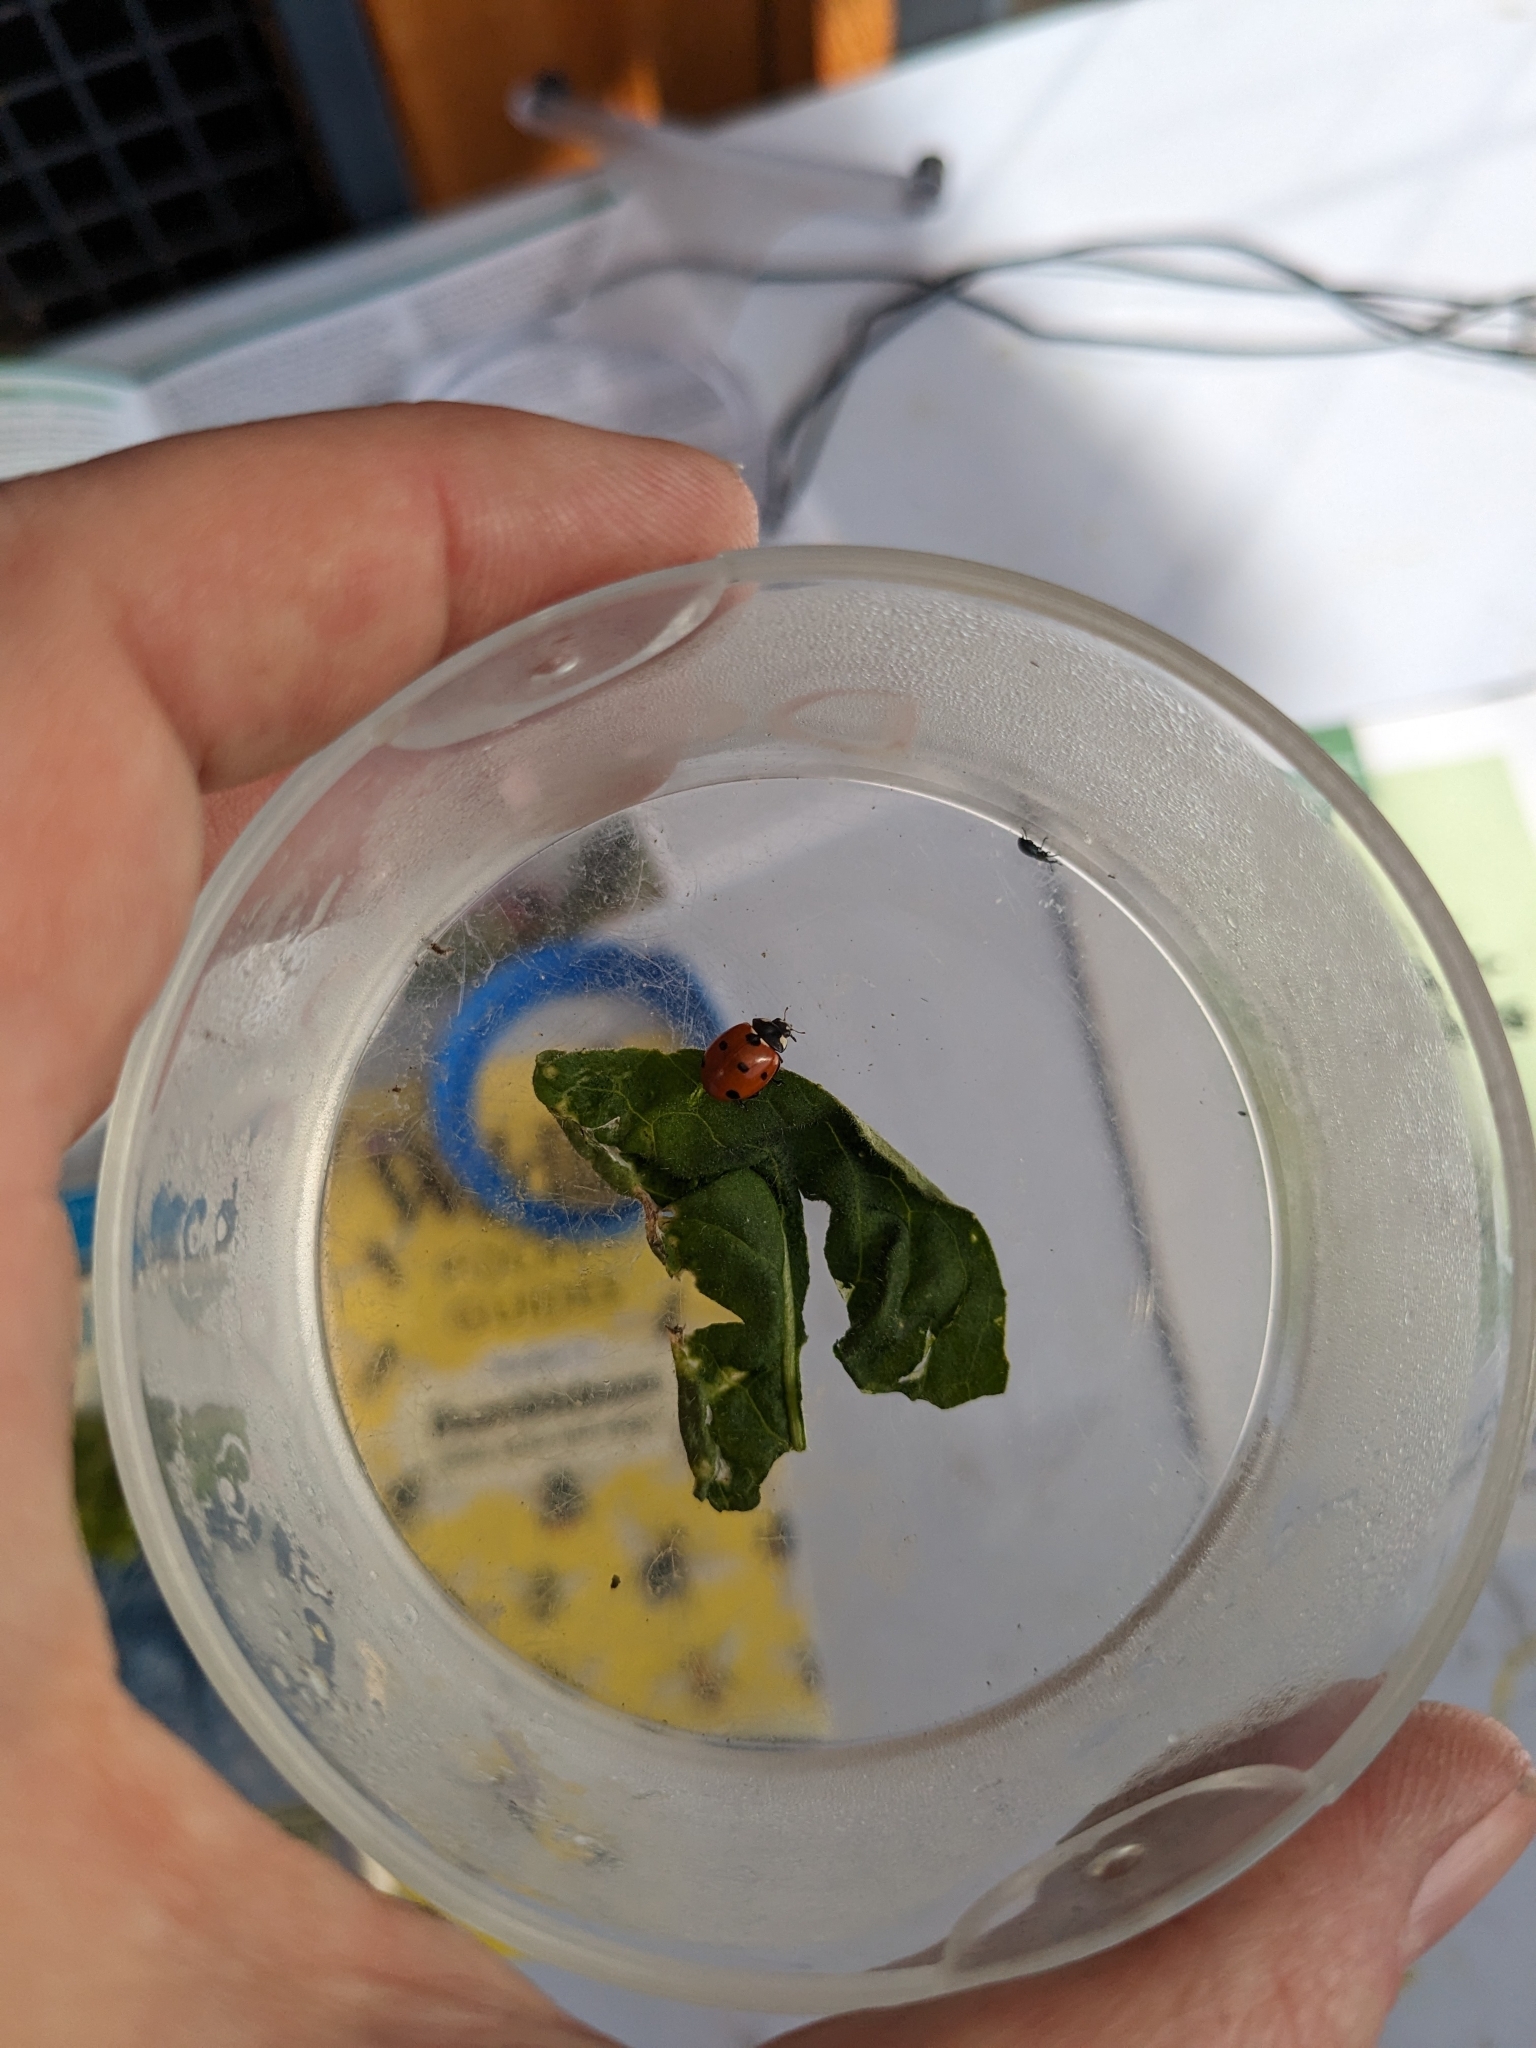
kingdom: Animalia
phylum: Arthropoda
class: Insecta
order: Coleoptera
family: Coccinellidae
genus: Coccinella
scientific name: Coccinella septempunctata
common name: Sevenspotted lady beetle
